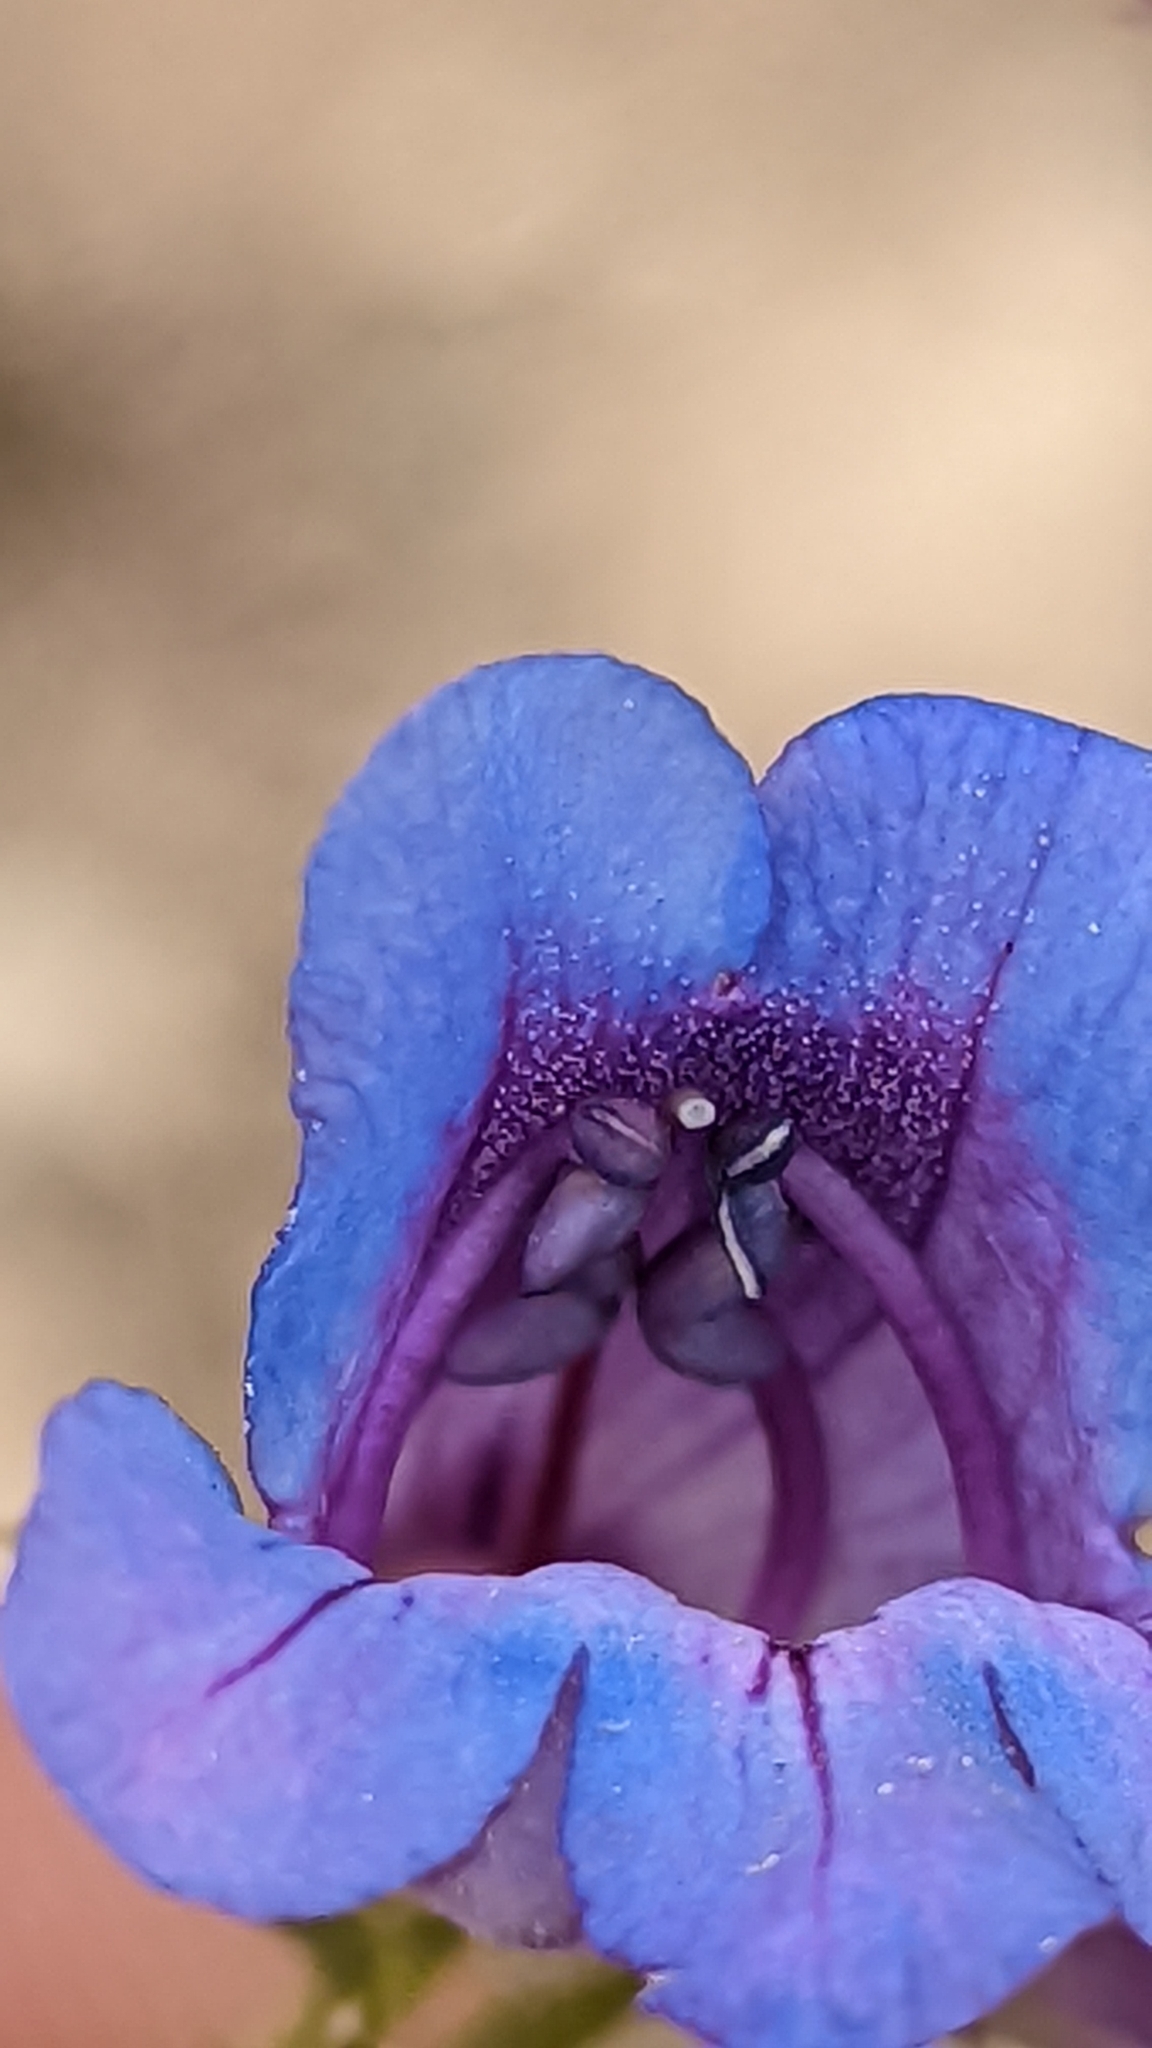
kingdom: Plantae
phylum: Tracheophyta
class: Magnoliopsida
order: Lamiales
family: Plantaginaceae
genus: Penstemon
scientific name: Penstemon leiophyllus
